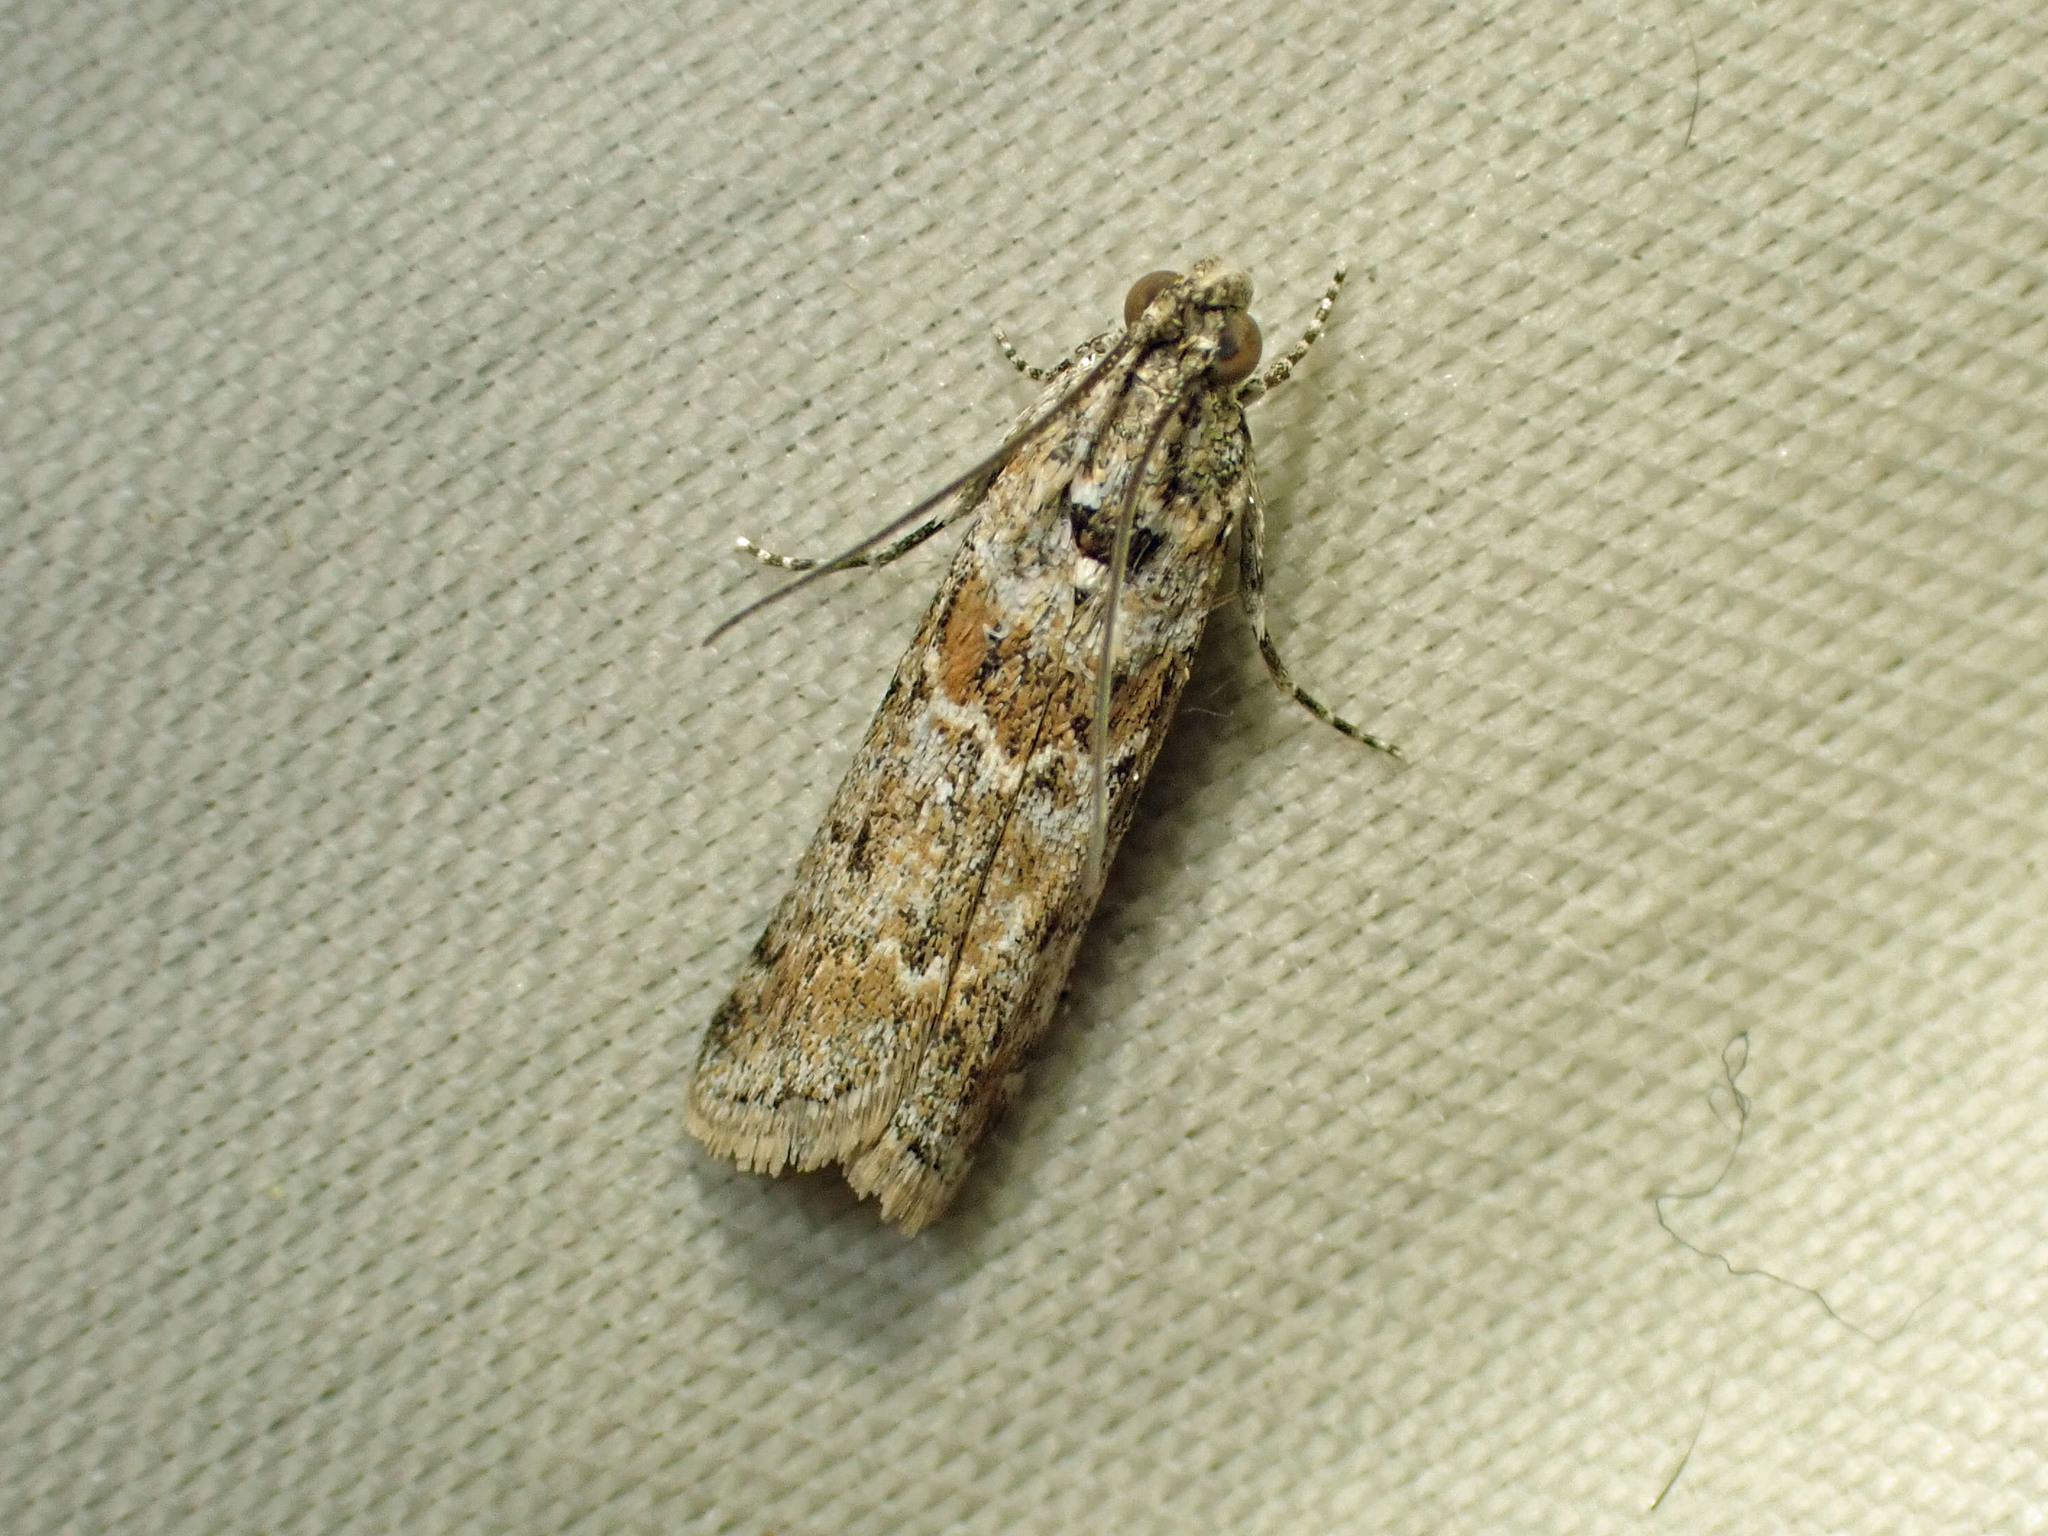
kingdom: Animalia
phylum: Arthropoda
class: Insecta
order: Lepidoptera
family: Pyralidae
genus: Ancylosis
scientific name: Ancylosis undulatella
